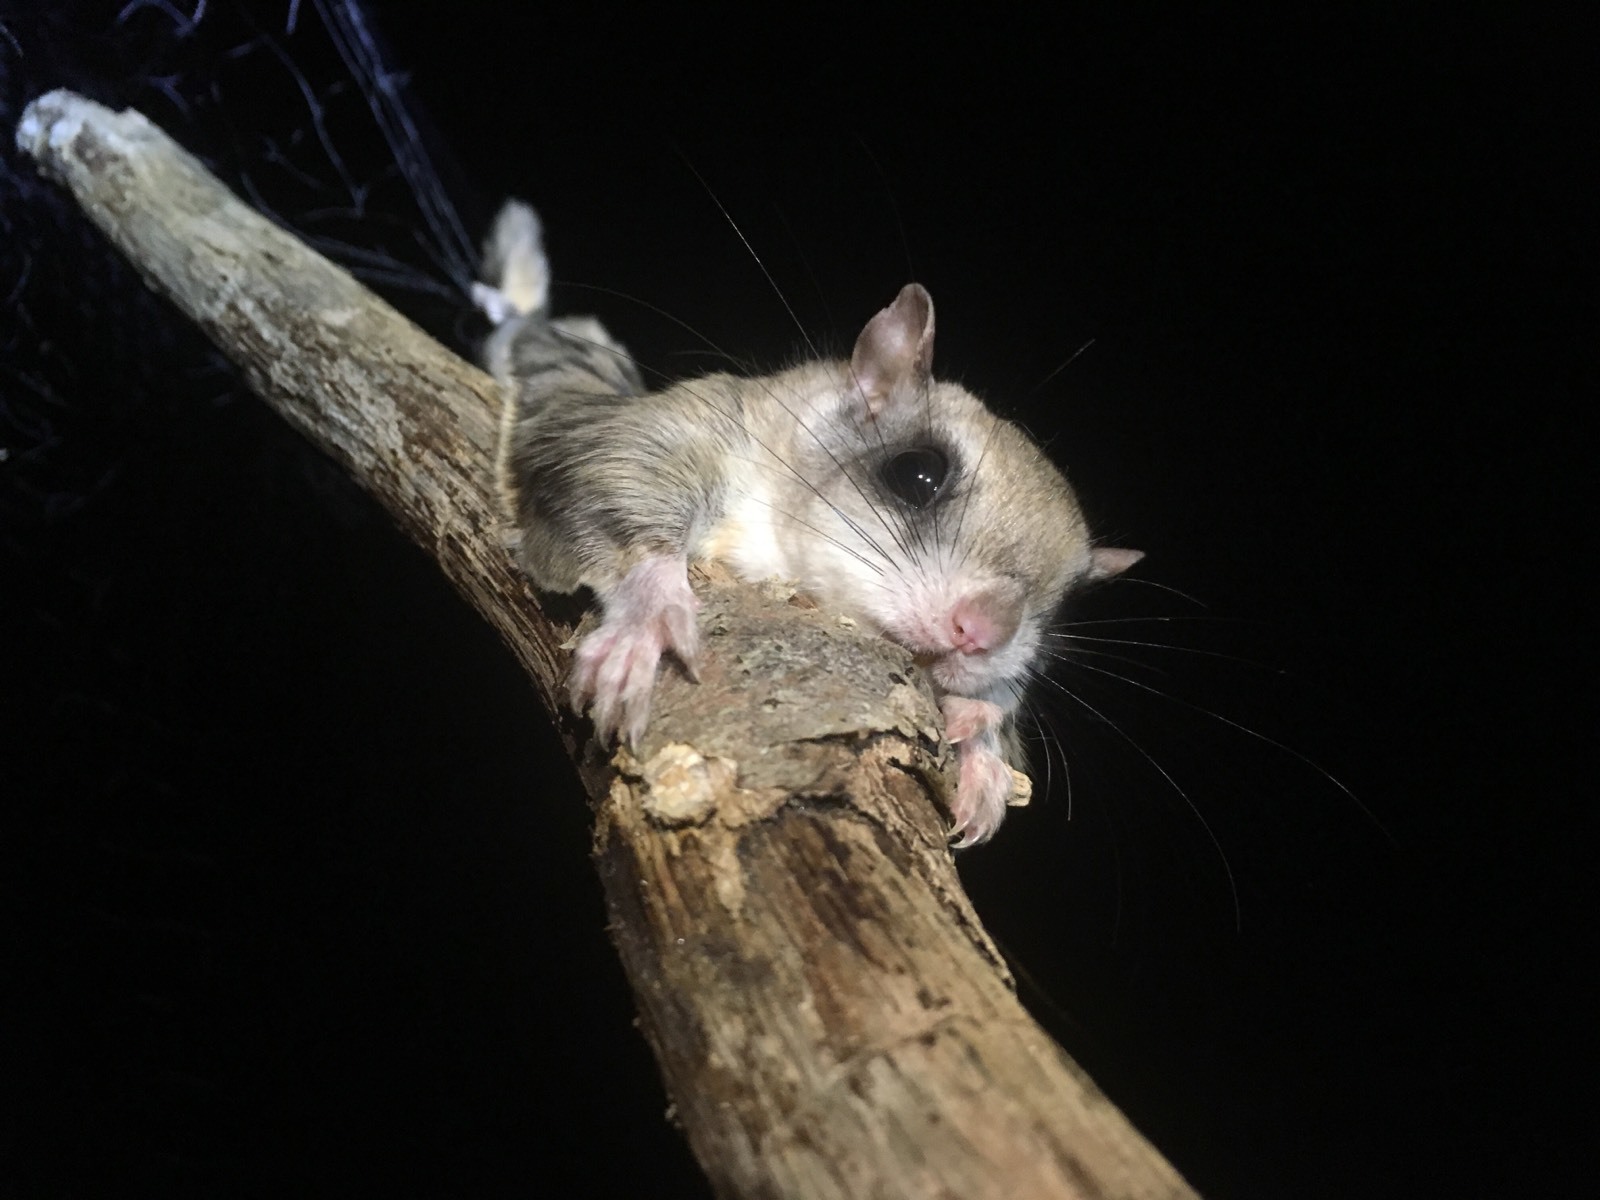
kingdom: Animalia
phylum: Chordata
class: Mammalia
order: Rodentia
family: Sciuridae
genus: Glaucomys
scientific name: Glaucomys volans
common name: Southern flying squirrel
